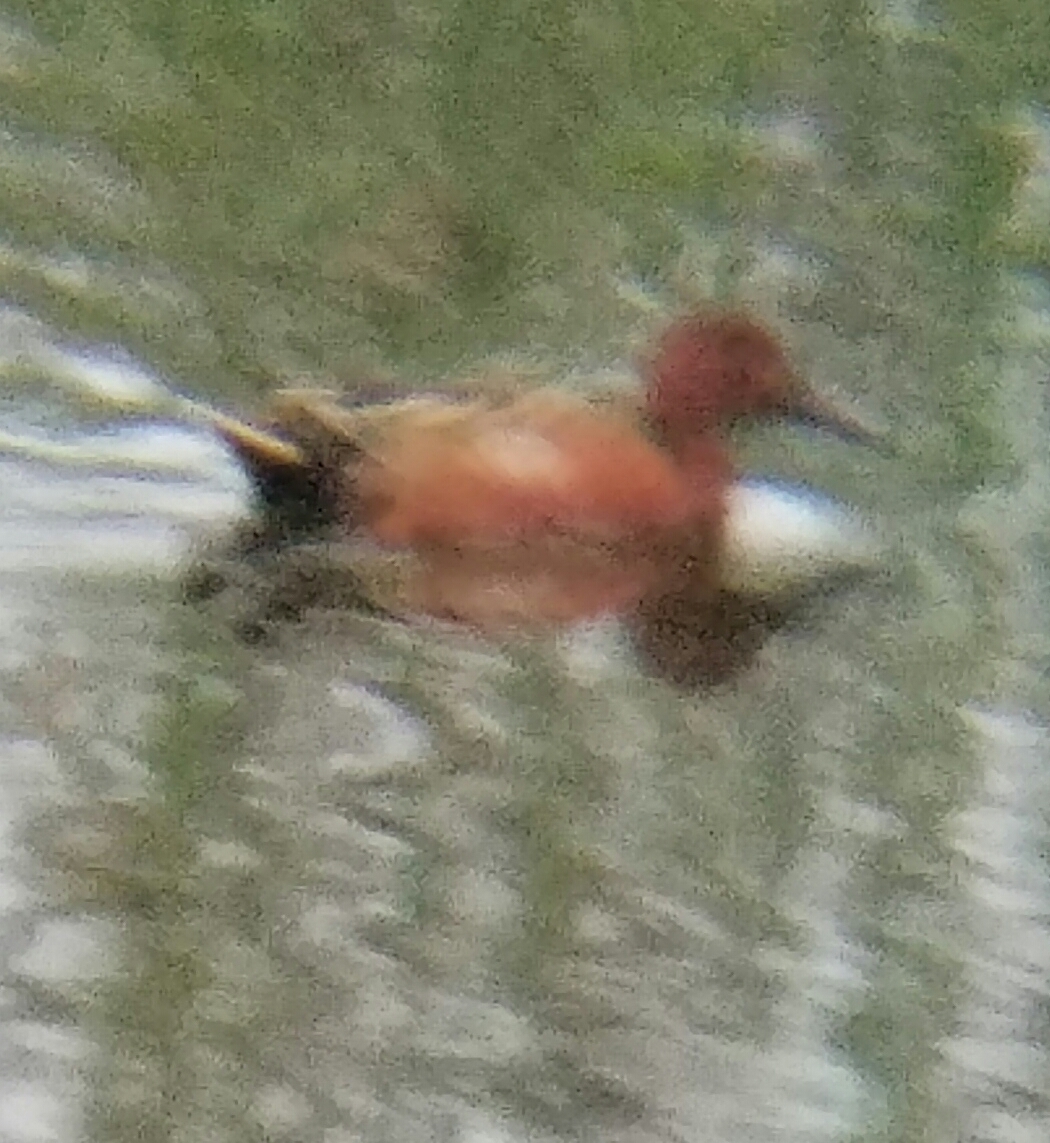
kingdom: Animalia
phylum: Chordata
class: Aves
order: Anseriformes
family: Anatidae
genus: Spatula
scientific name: Spatula cyanoptera
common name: Cinnamon teal
